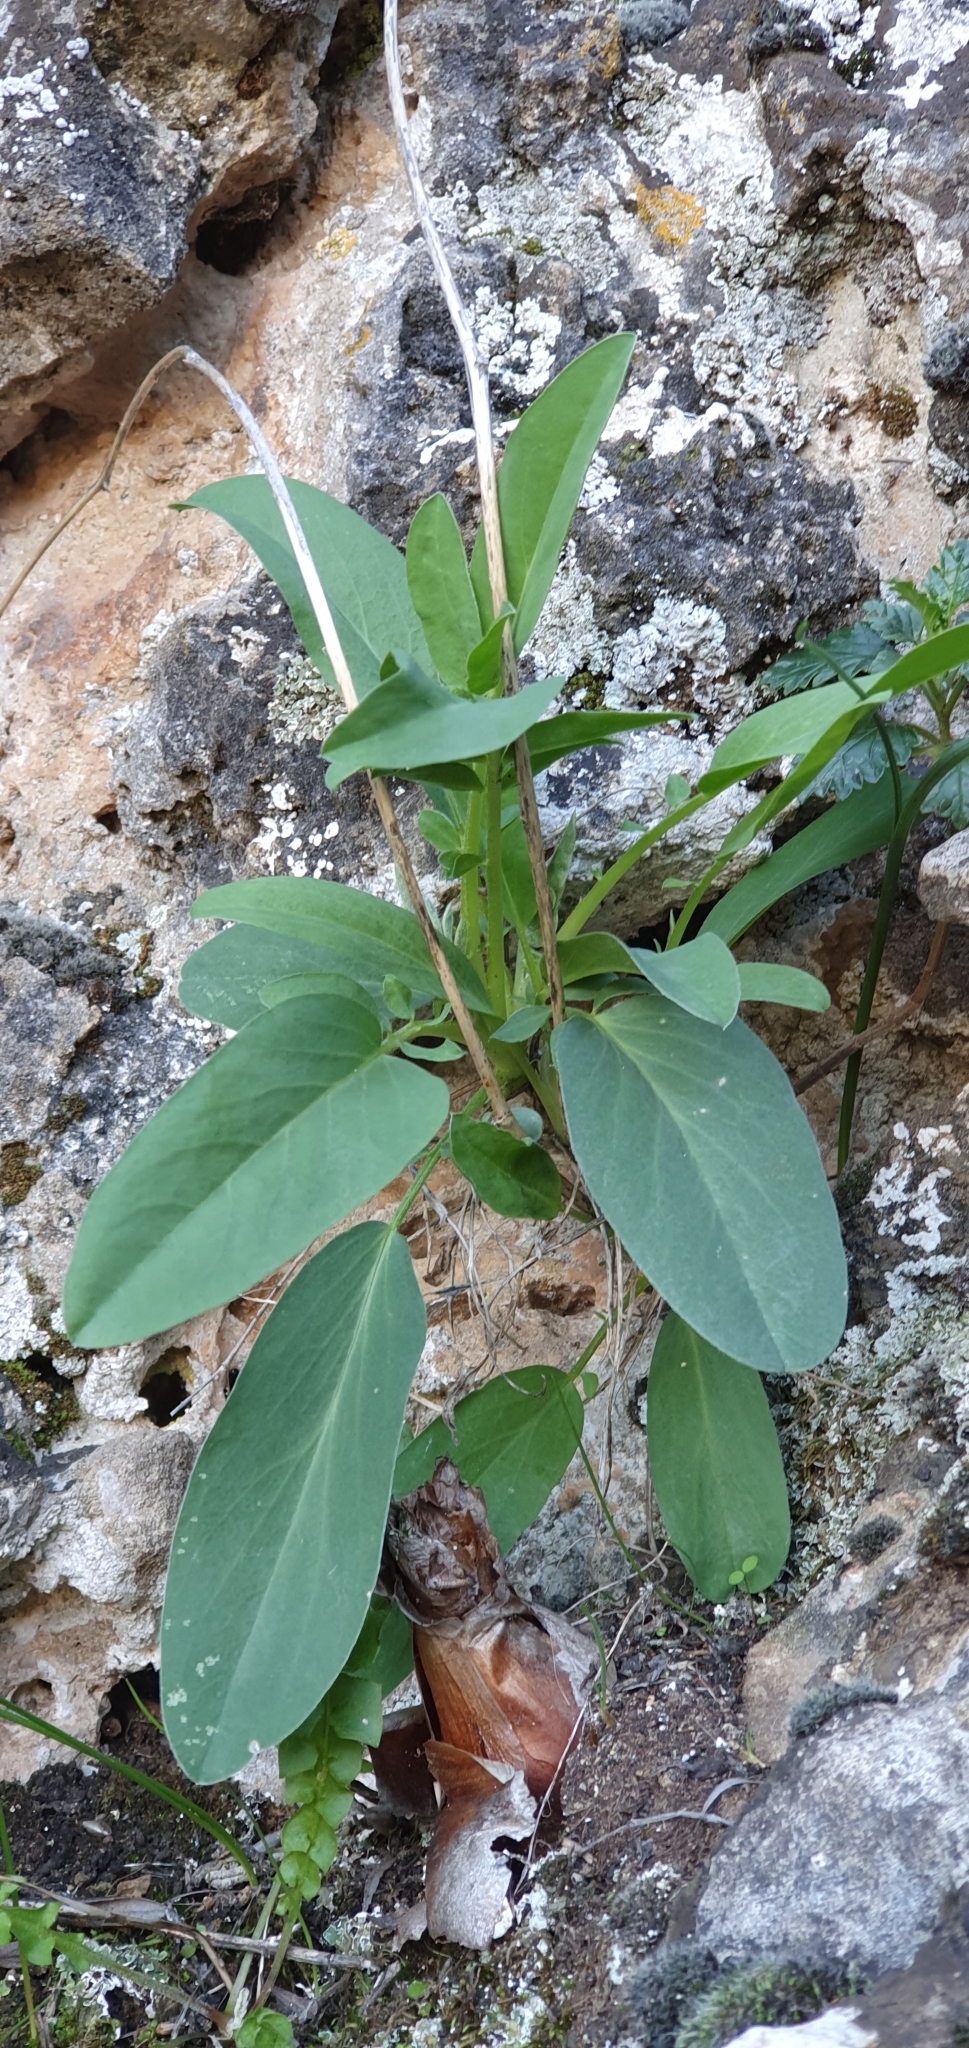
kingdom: Plantae
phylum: Tracheophyta
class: Magnoliopsida
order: Fabales
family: Fabaceae
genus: Anthyllis
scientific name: Anthyllis vulneraria
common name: Kidney vetch
